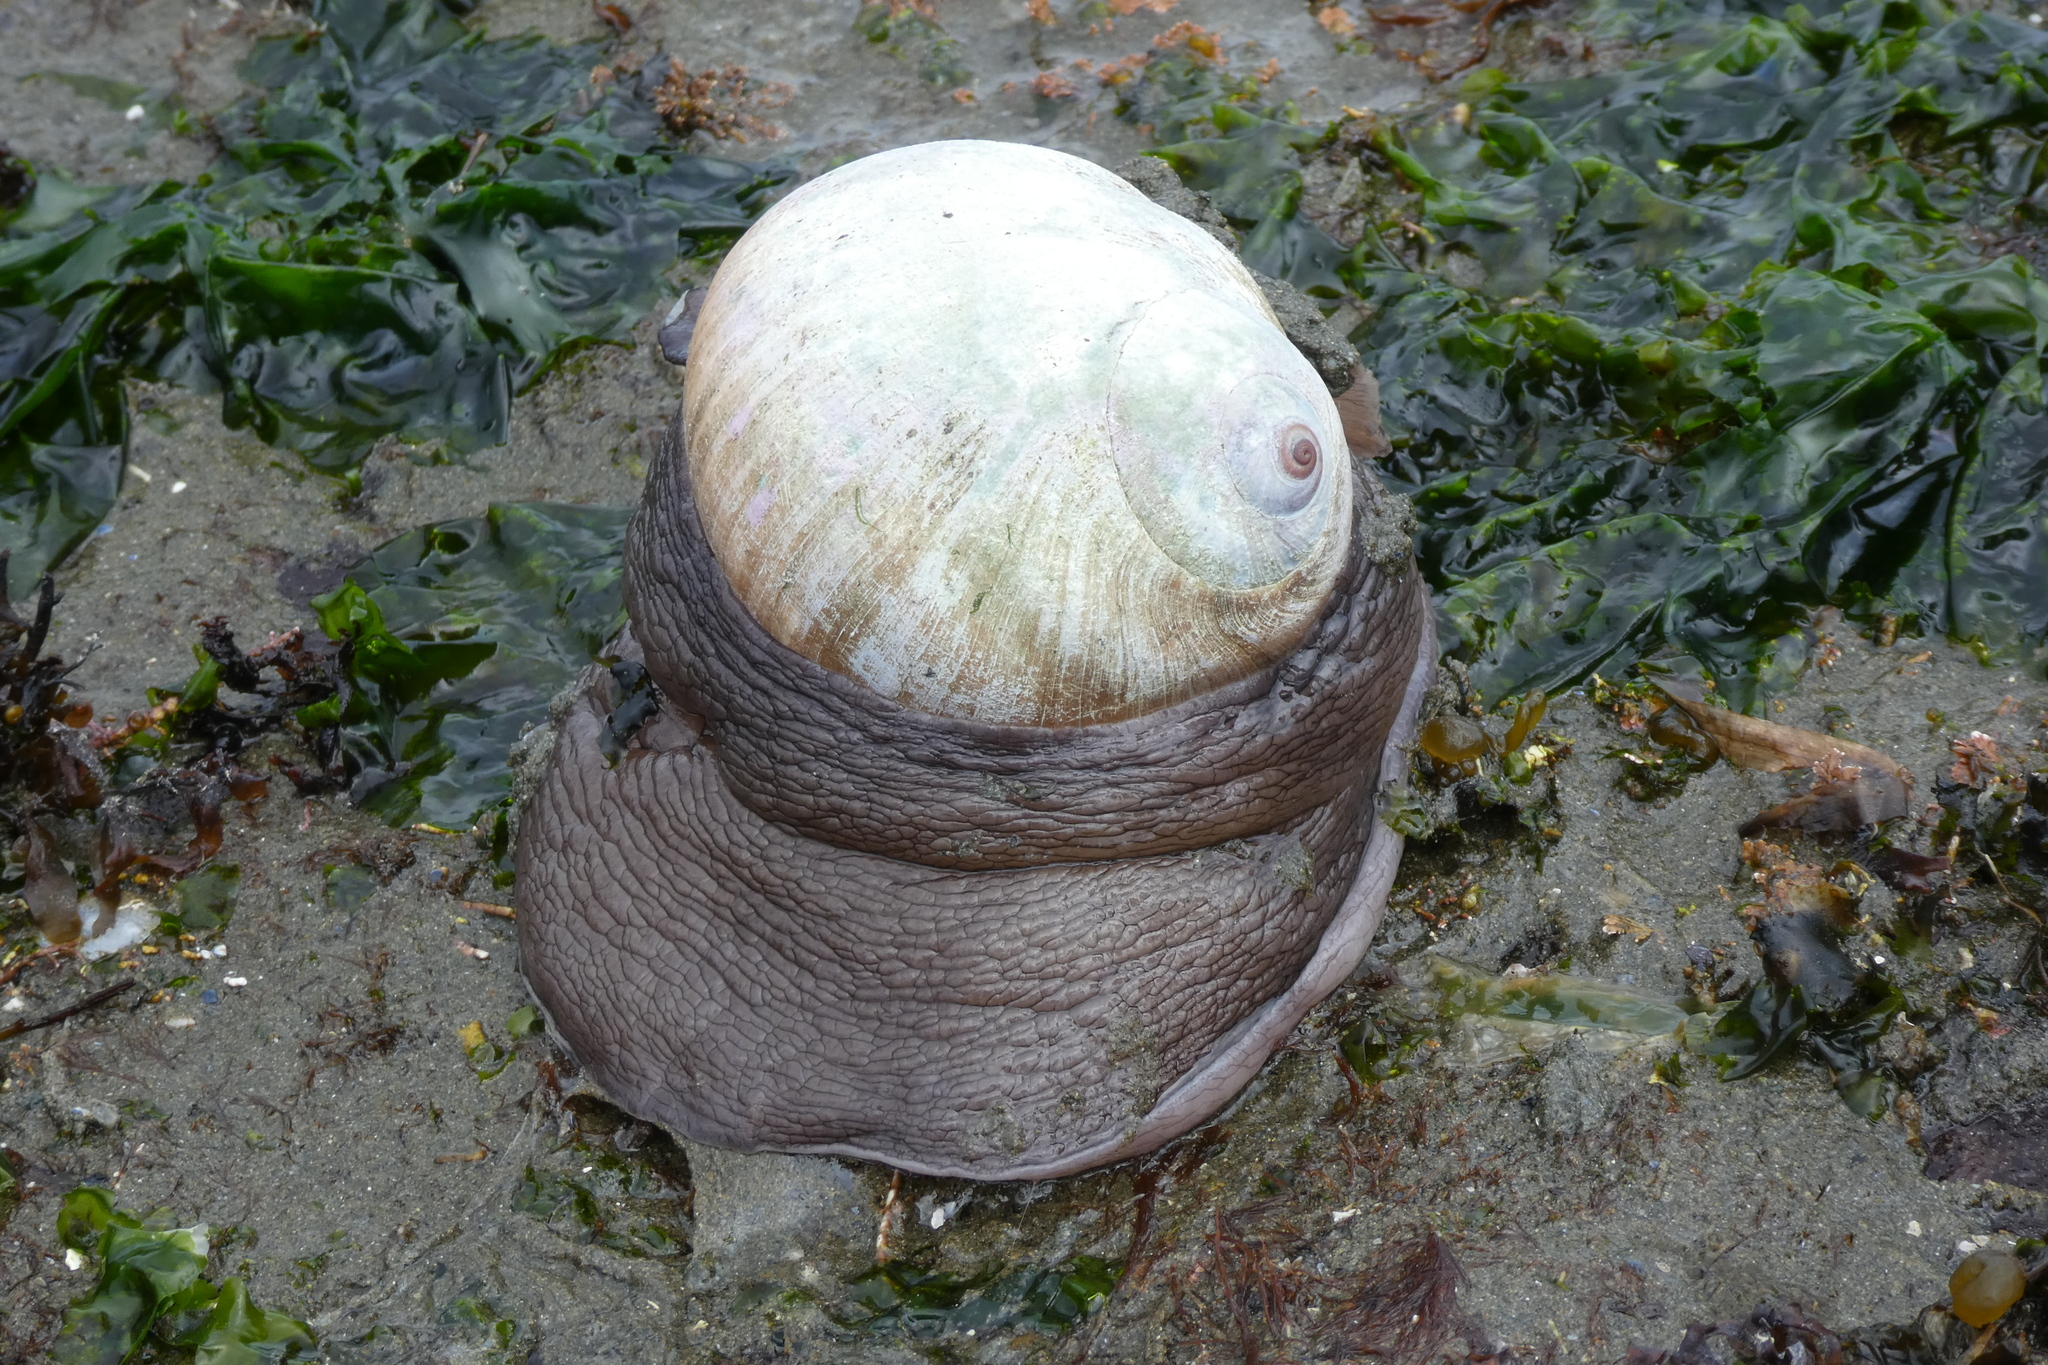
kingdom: Animalia
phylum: Mollusca
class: Gastropoda
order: Littorinimorpha
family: Naticidae
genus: Neverita
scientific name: Neverita lewisii
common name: Lewis' moonsnail
